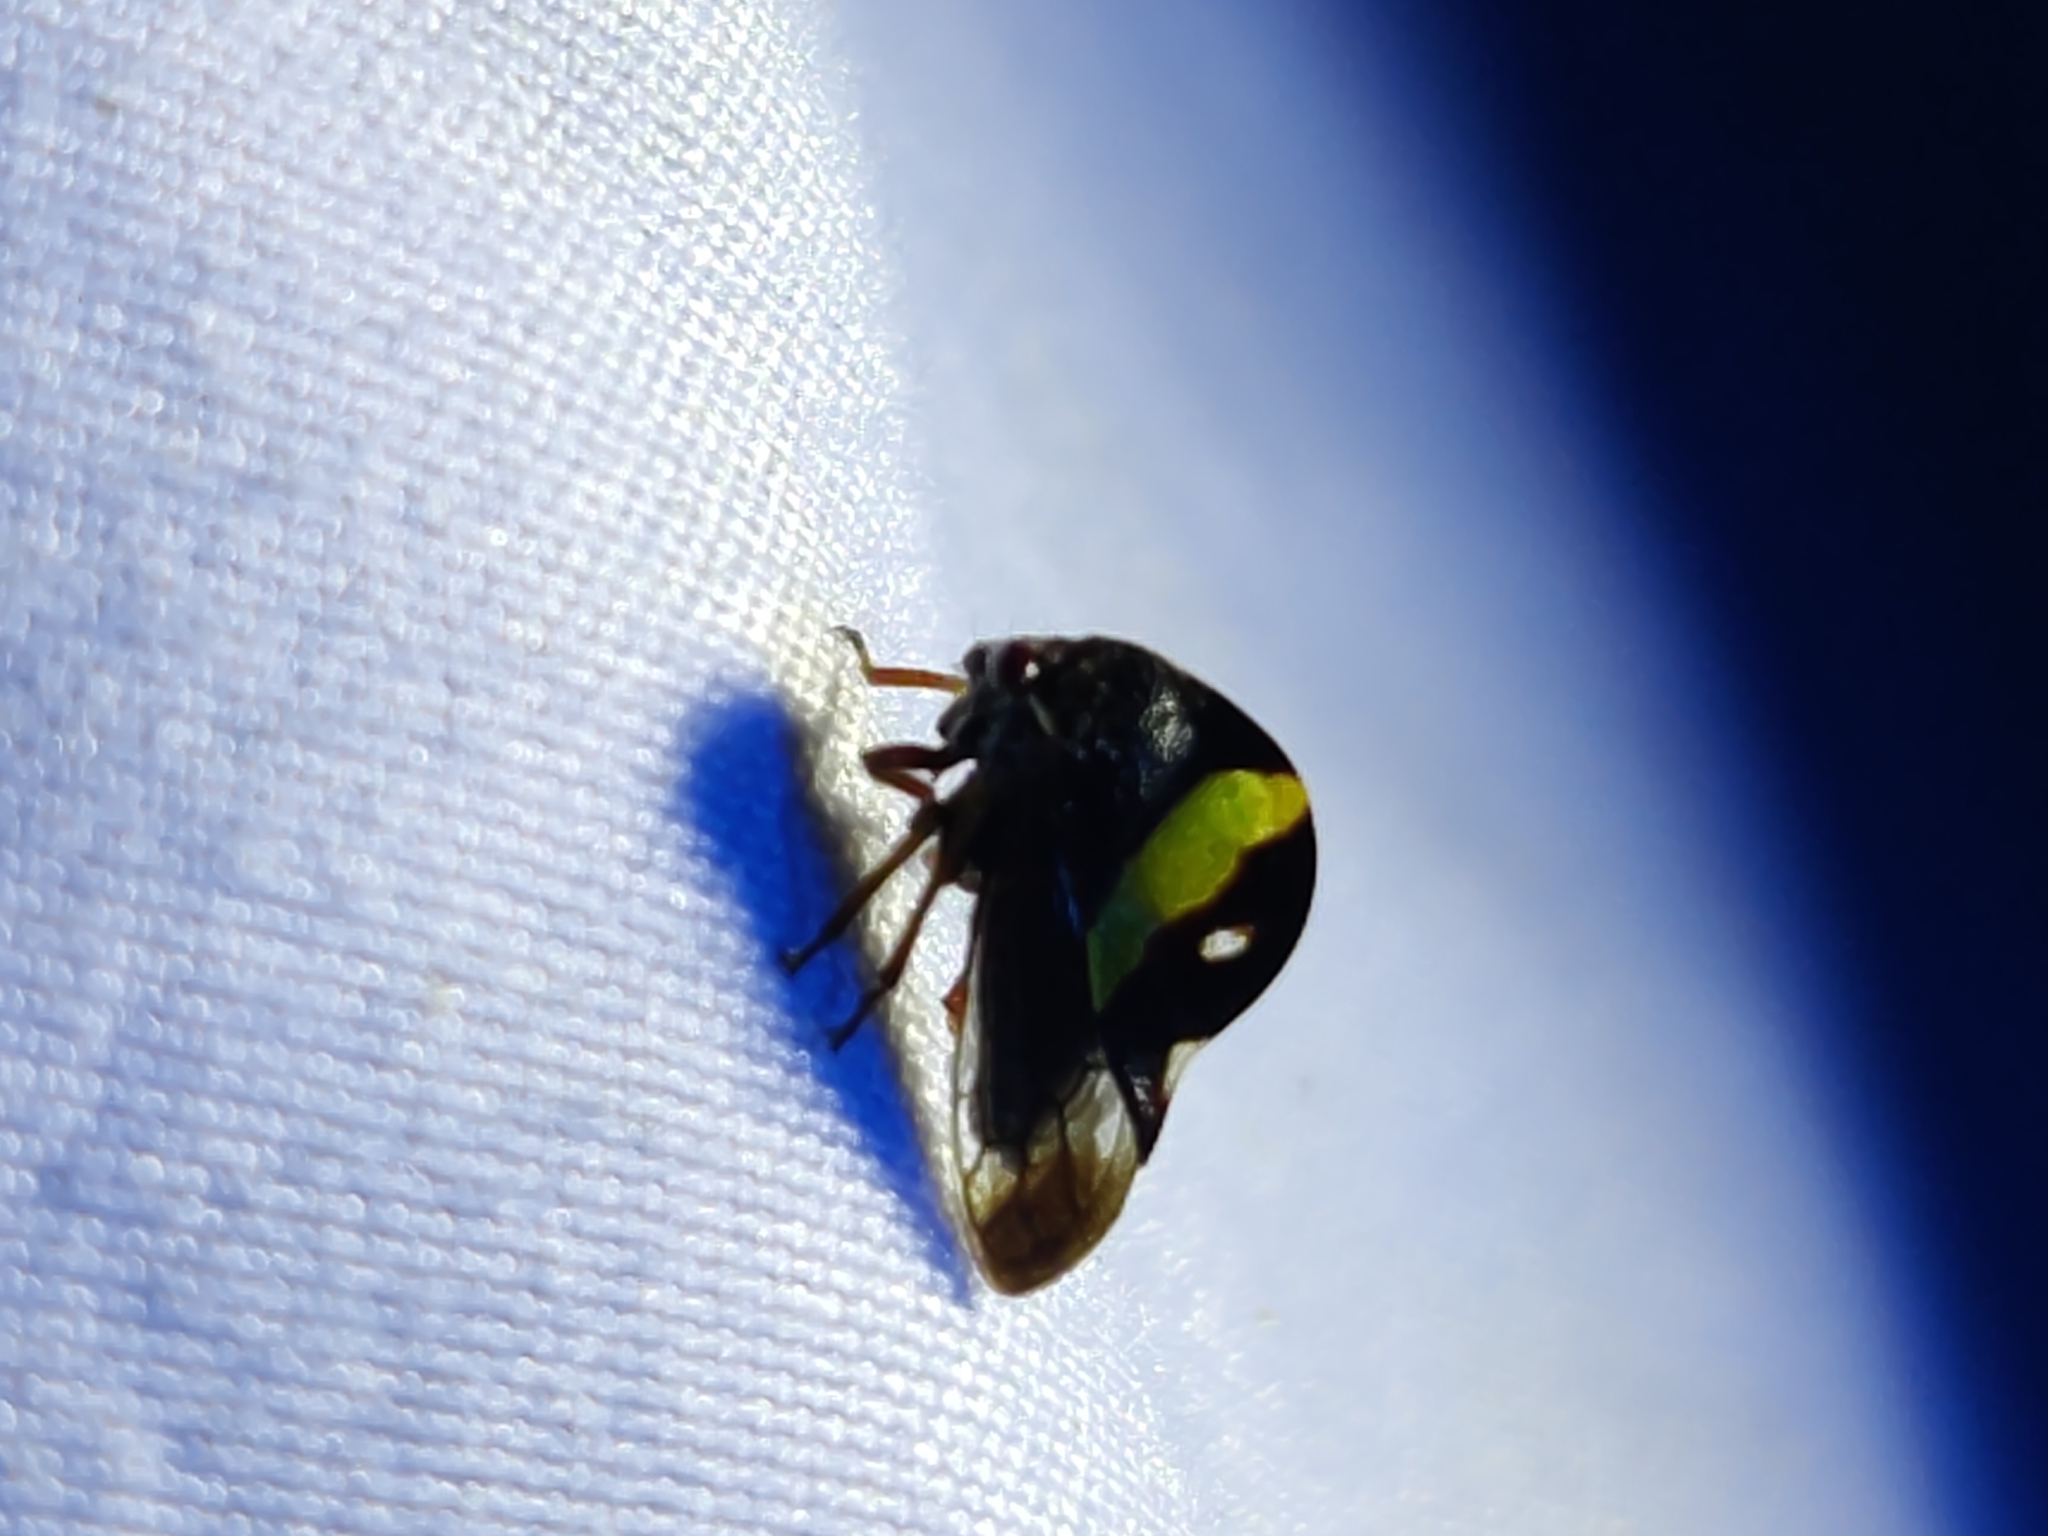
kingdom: Animalia
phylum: Arthropoda
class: Insecta
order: Hemiptera
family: Membracidae
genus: Smilia
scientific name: Smilia fasciata
